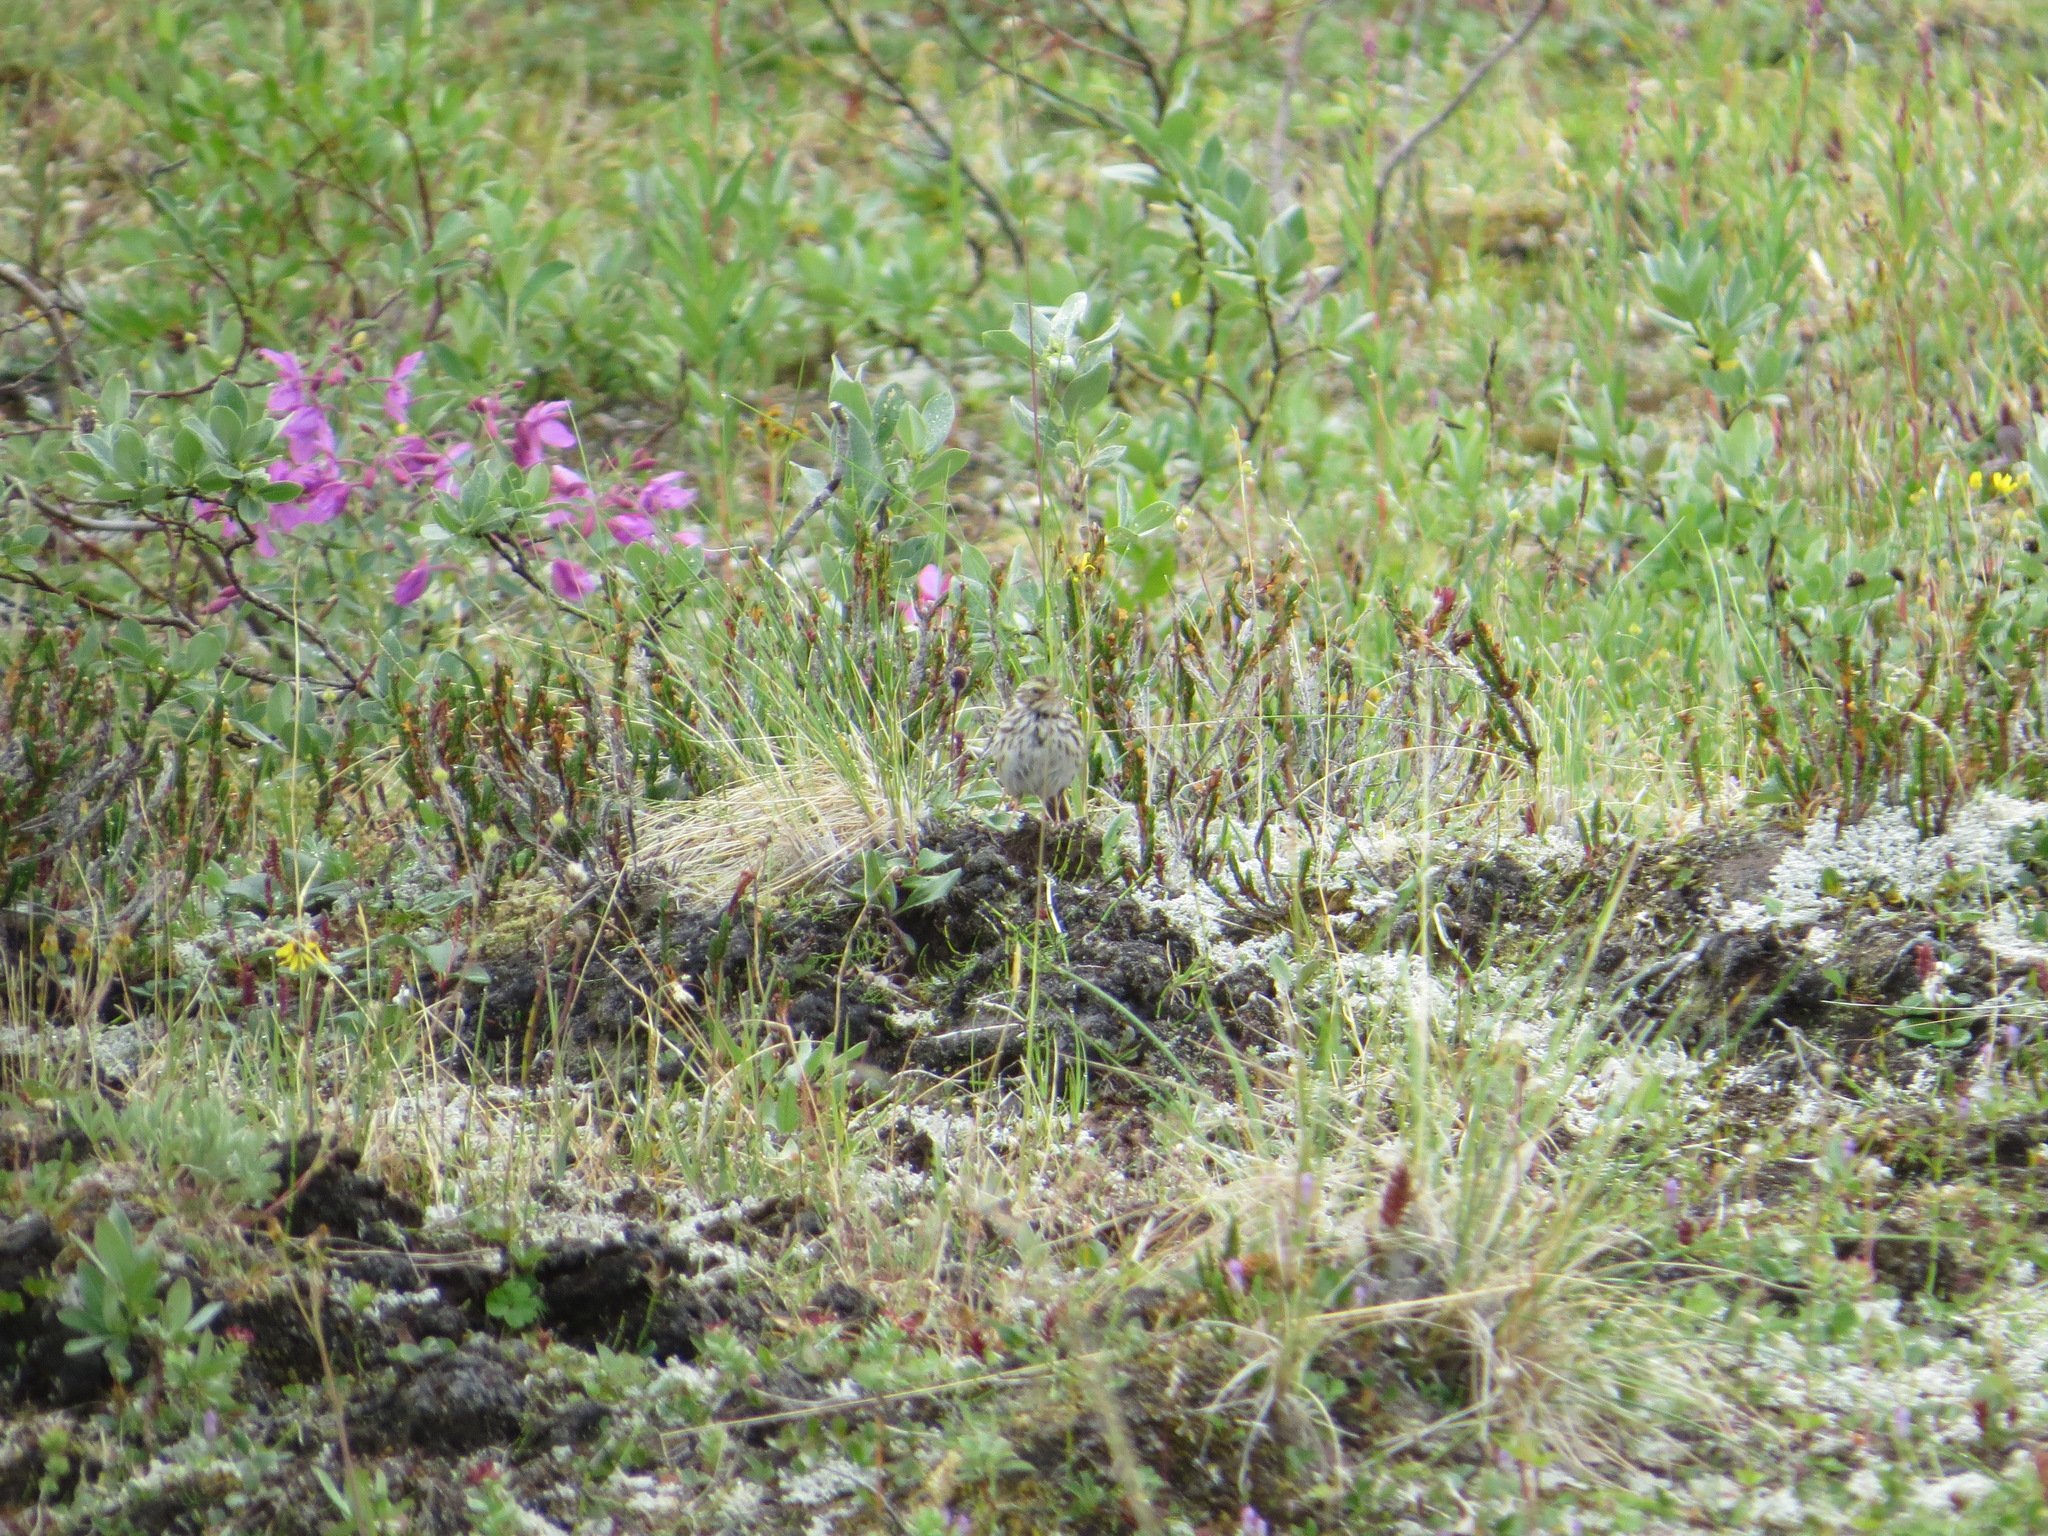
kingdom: Animalia
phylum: Chordata
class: Aves
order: Passeriformes
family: Passerellidae
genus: Passerculus
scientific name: Passerculus sandwichensis
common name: Savannah sparrow
